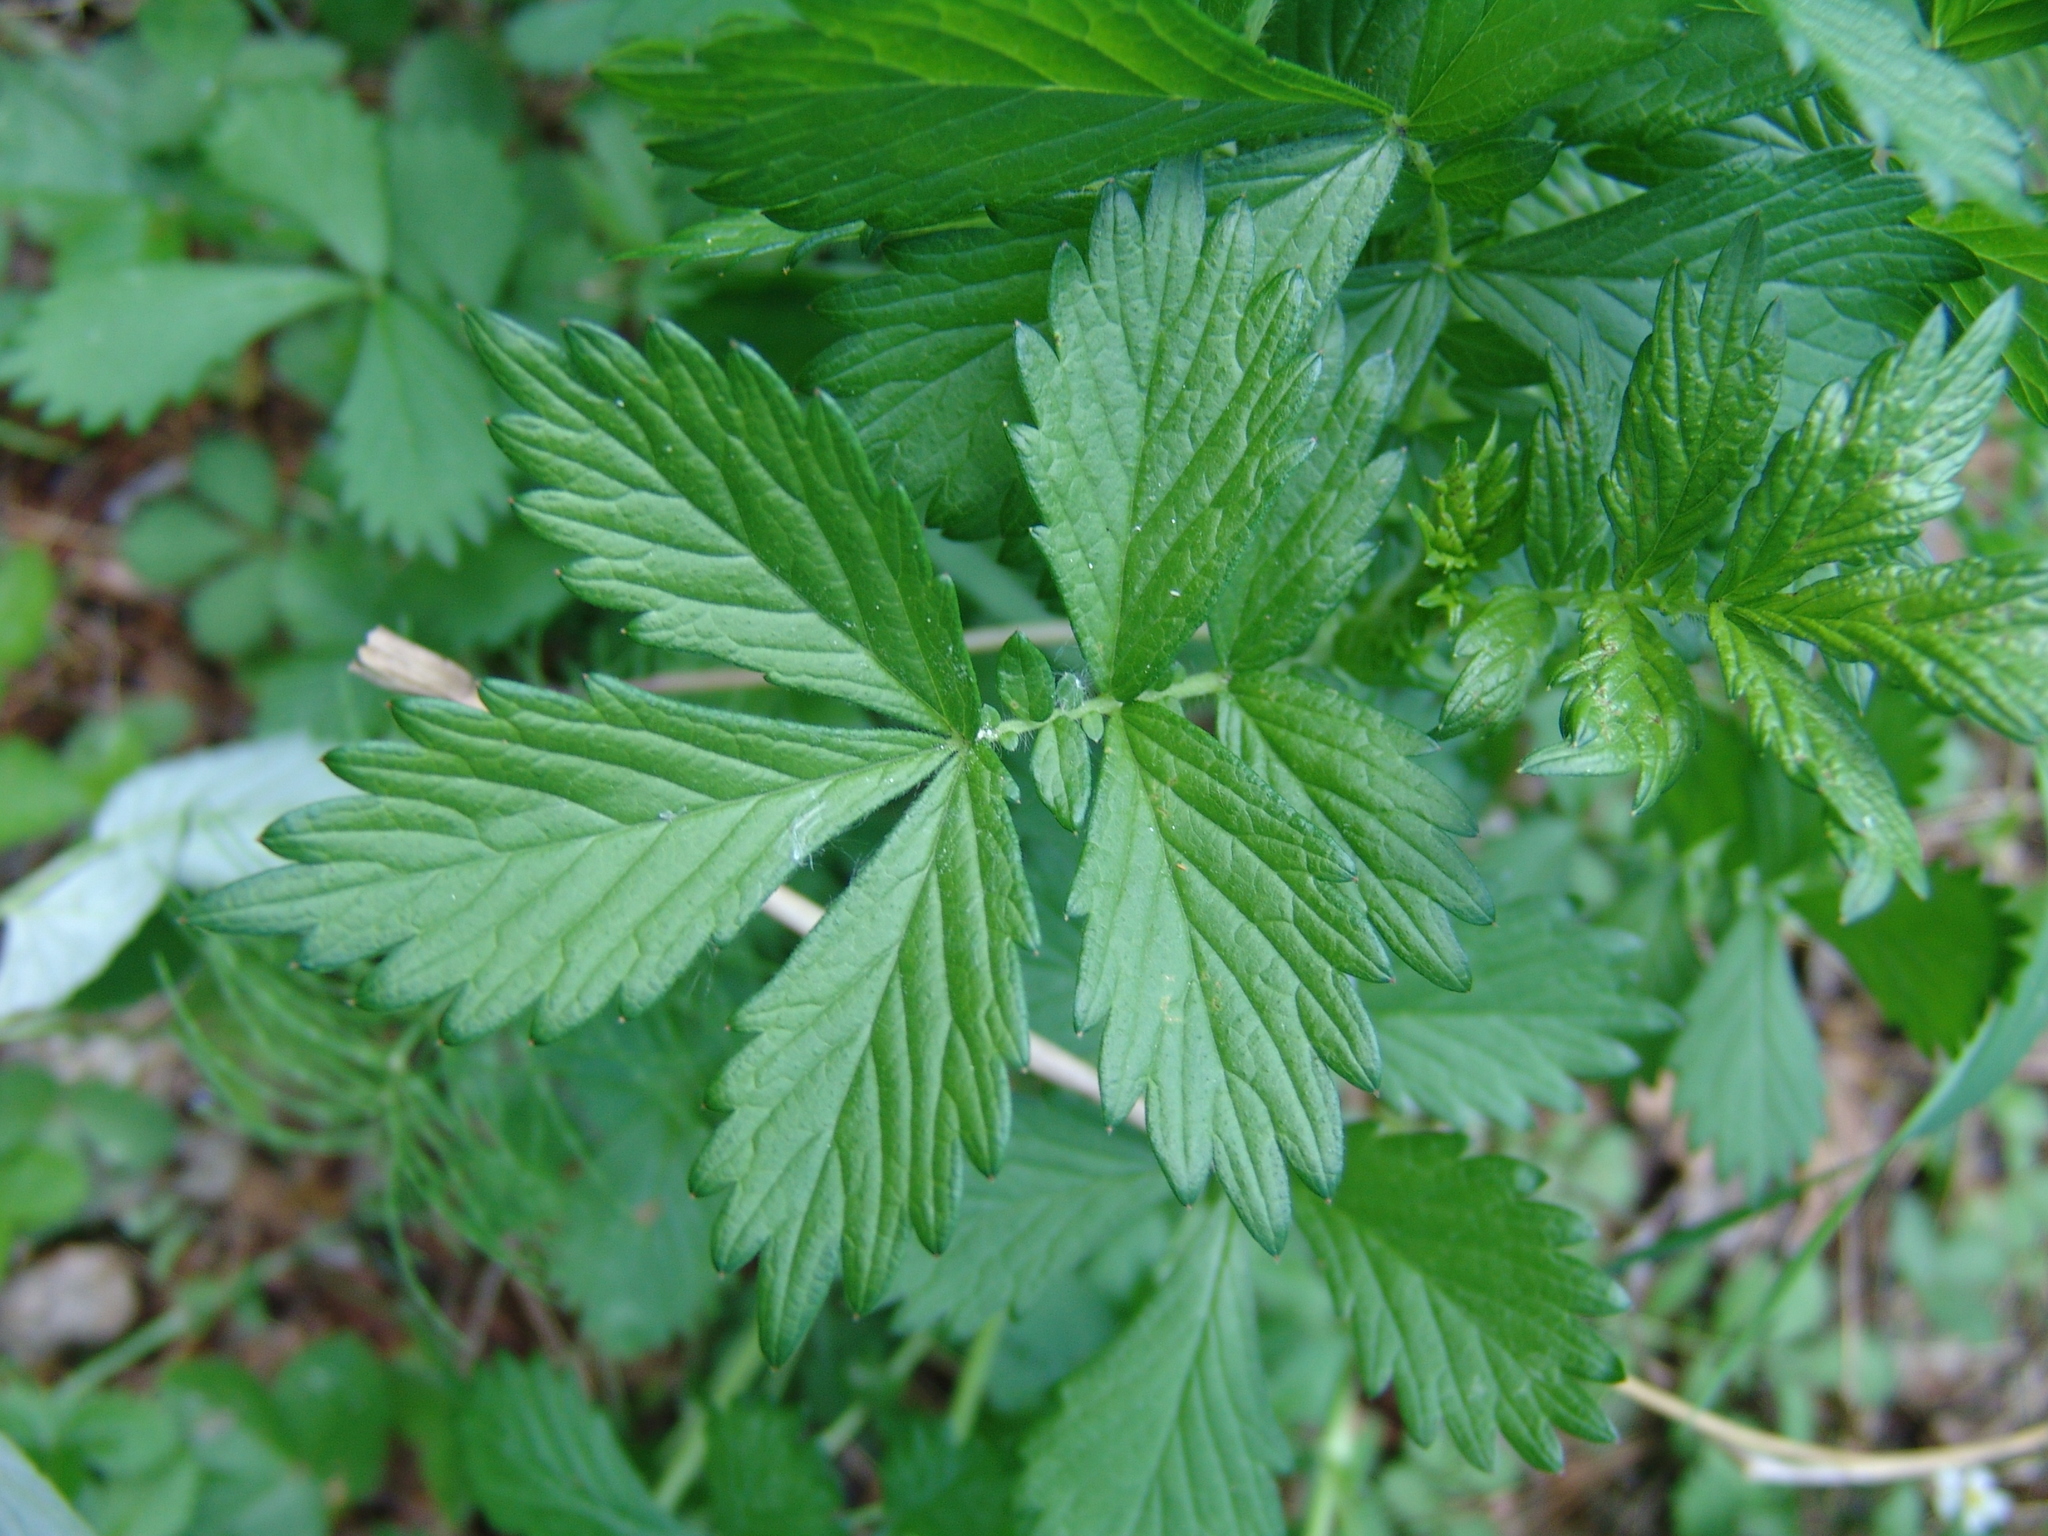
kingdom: Plantae
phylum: Tracheophyta
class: Magnoliopsida
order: Rosales
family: Rosaceae
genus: Agrimonia
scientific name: Agrimonia pilosa
